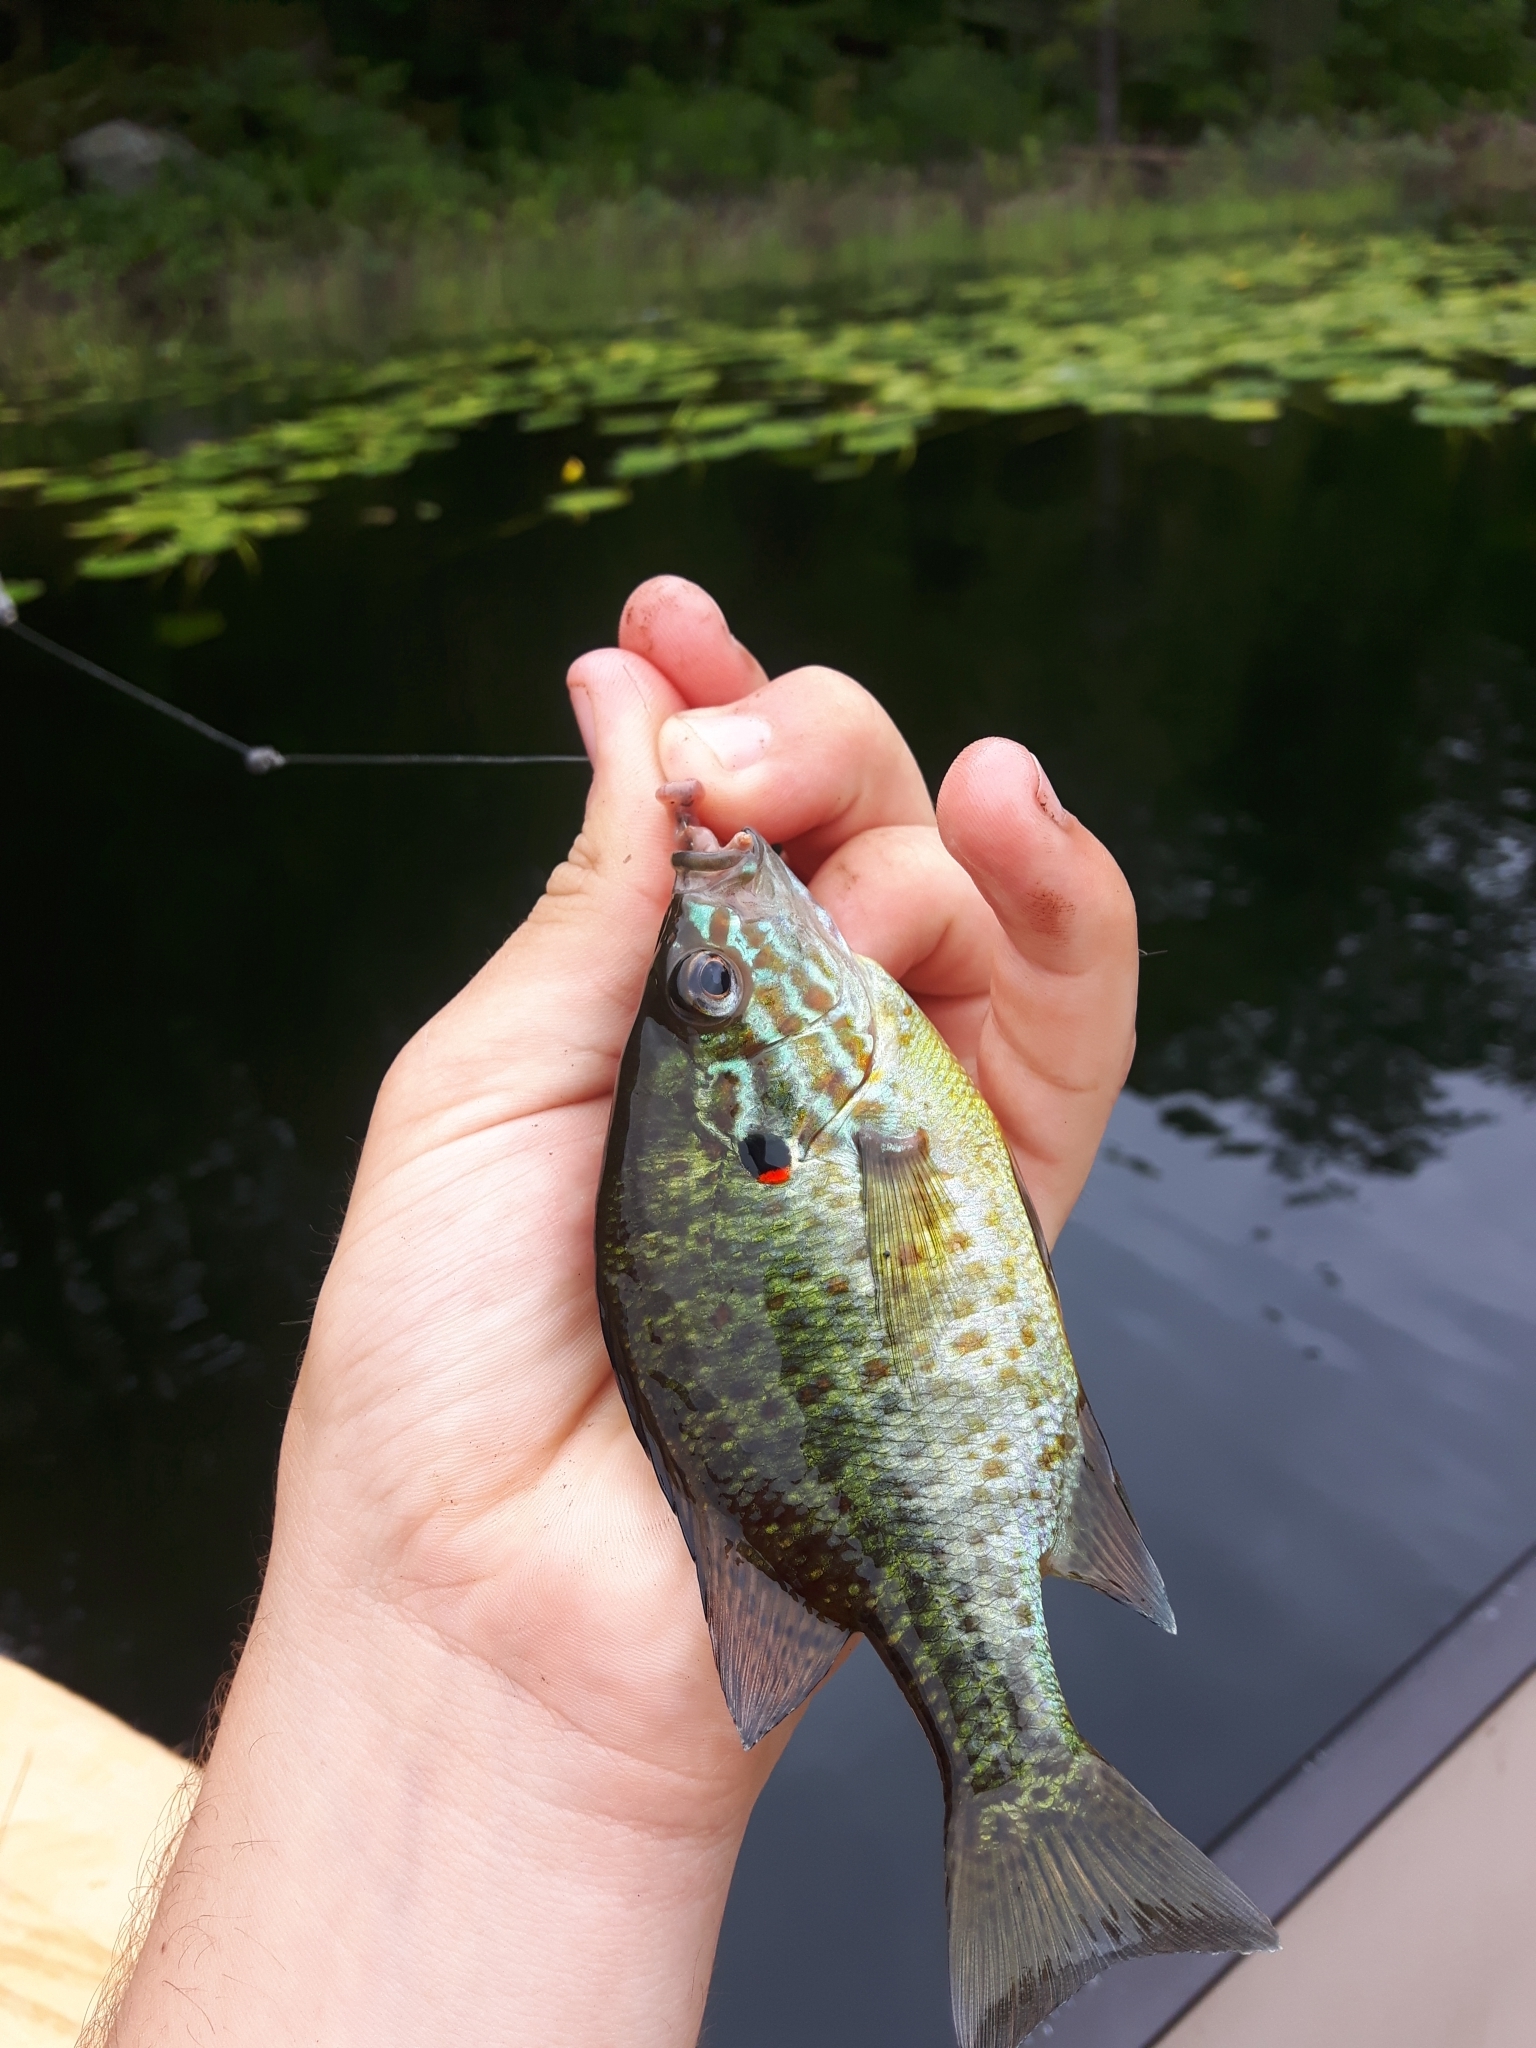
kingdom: Animalia
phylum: Chordata
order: Perciformes
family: Centrarchidae
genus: Lepomis
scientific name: Lepomis gibbosus
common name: Pumpkinseed
